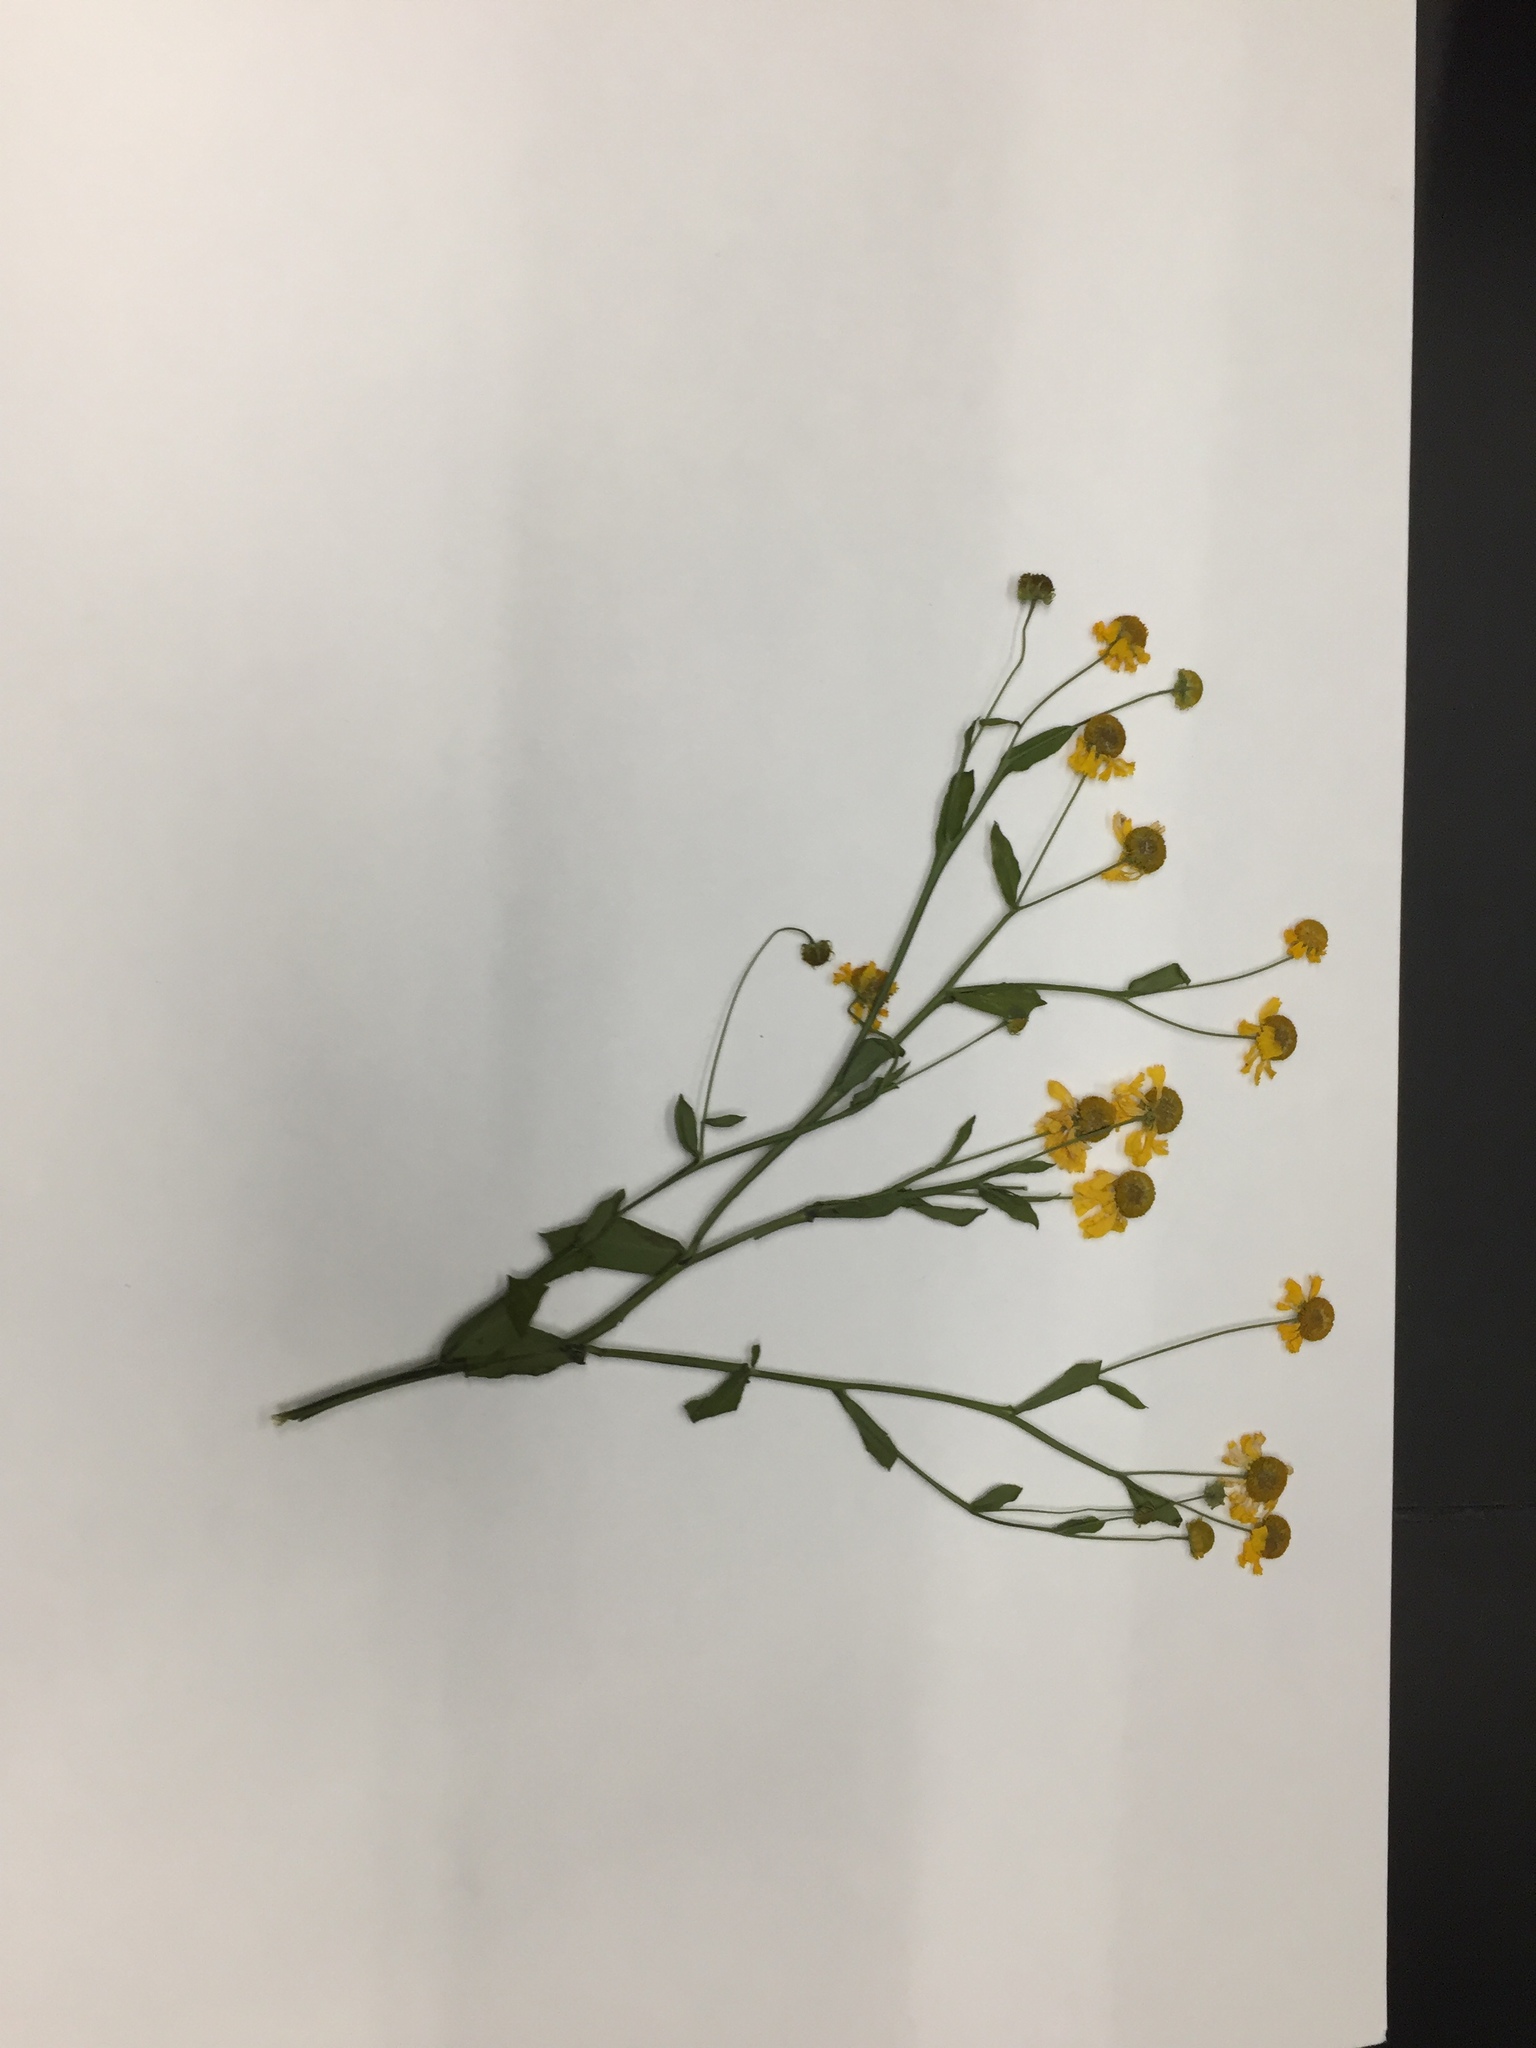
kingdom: Plantae
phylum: Tracheophyta
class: Magnoliopsida
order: Asterales
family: Asteraceae
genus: Helenium
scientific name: Helenium autumnale
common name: Sneezeweed
